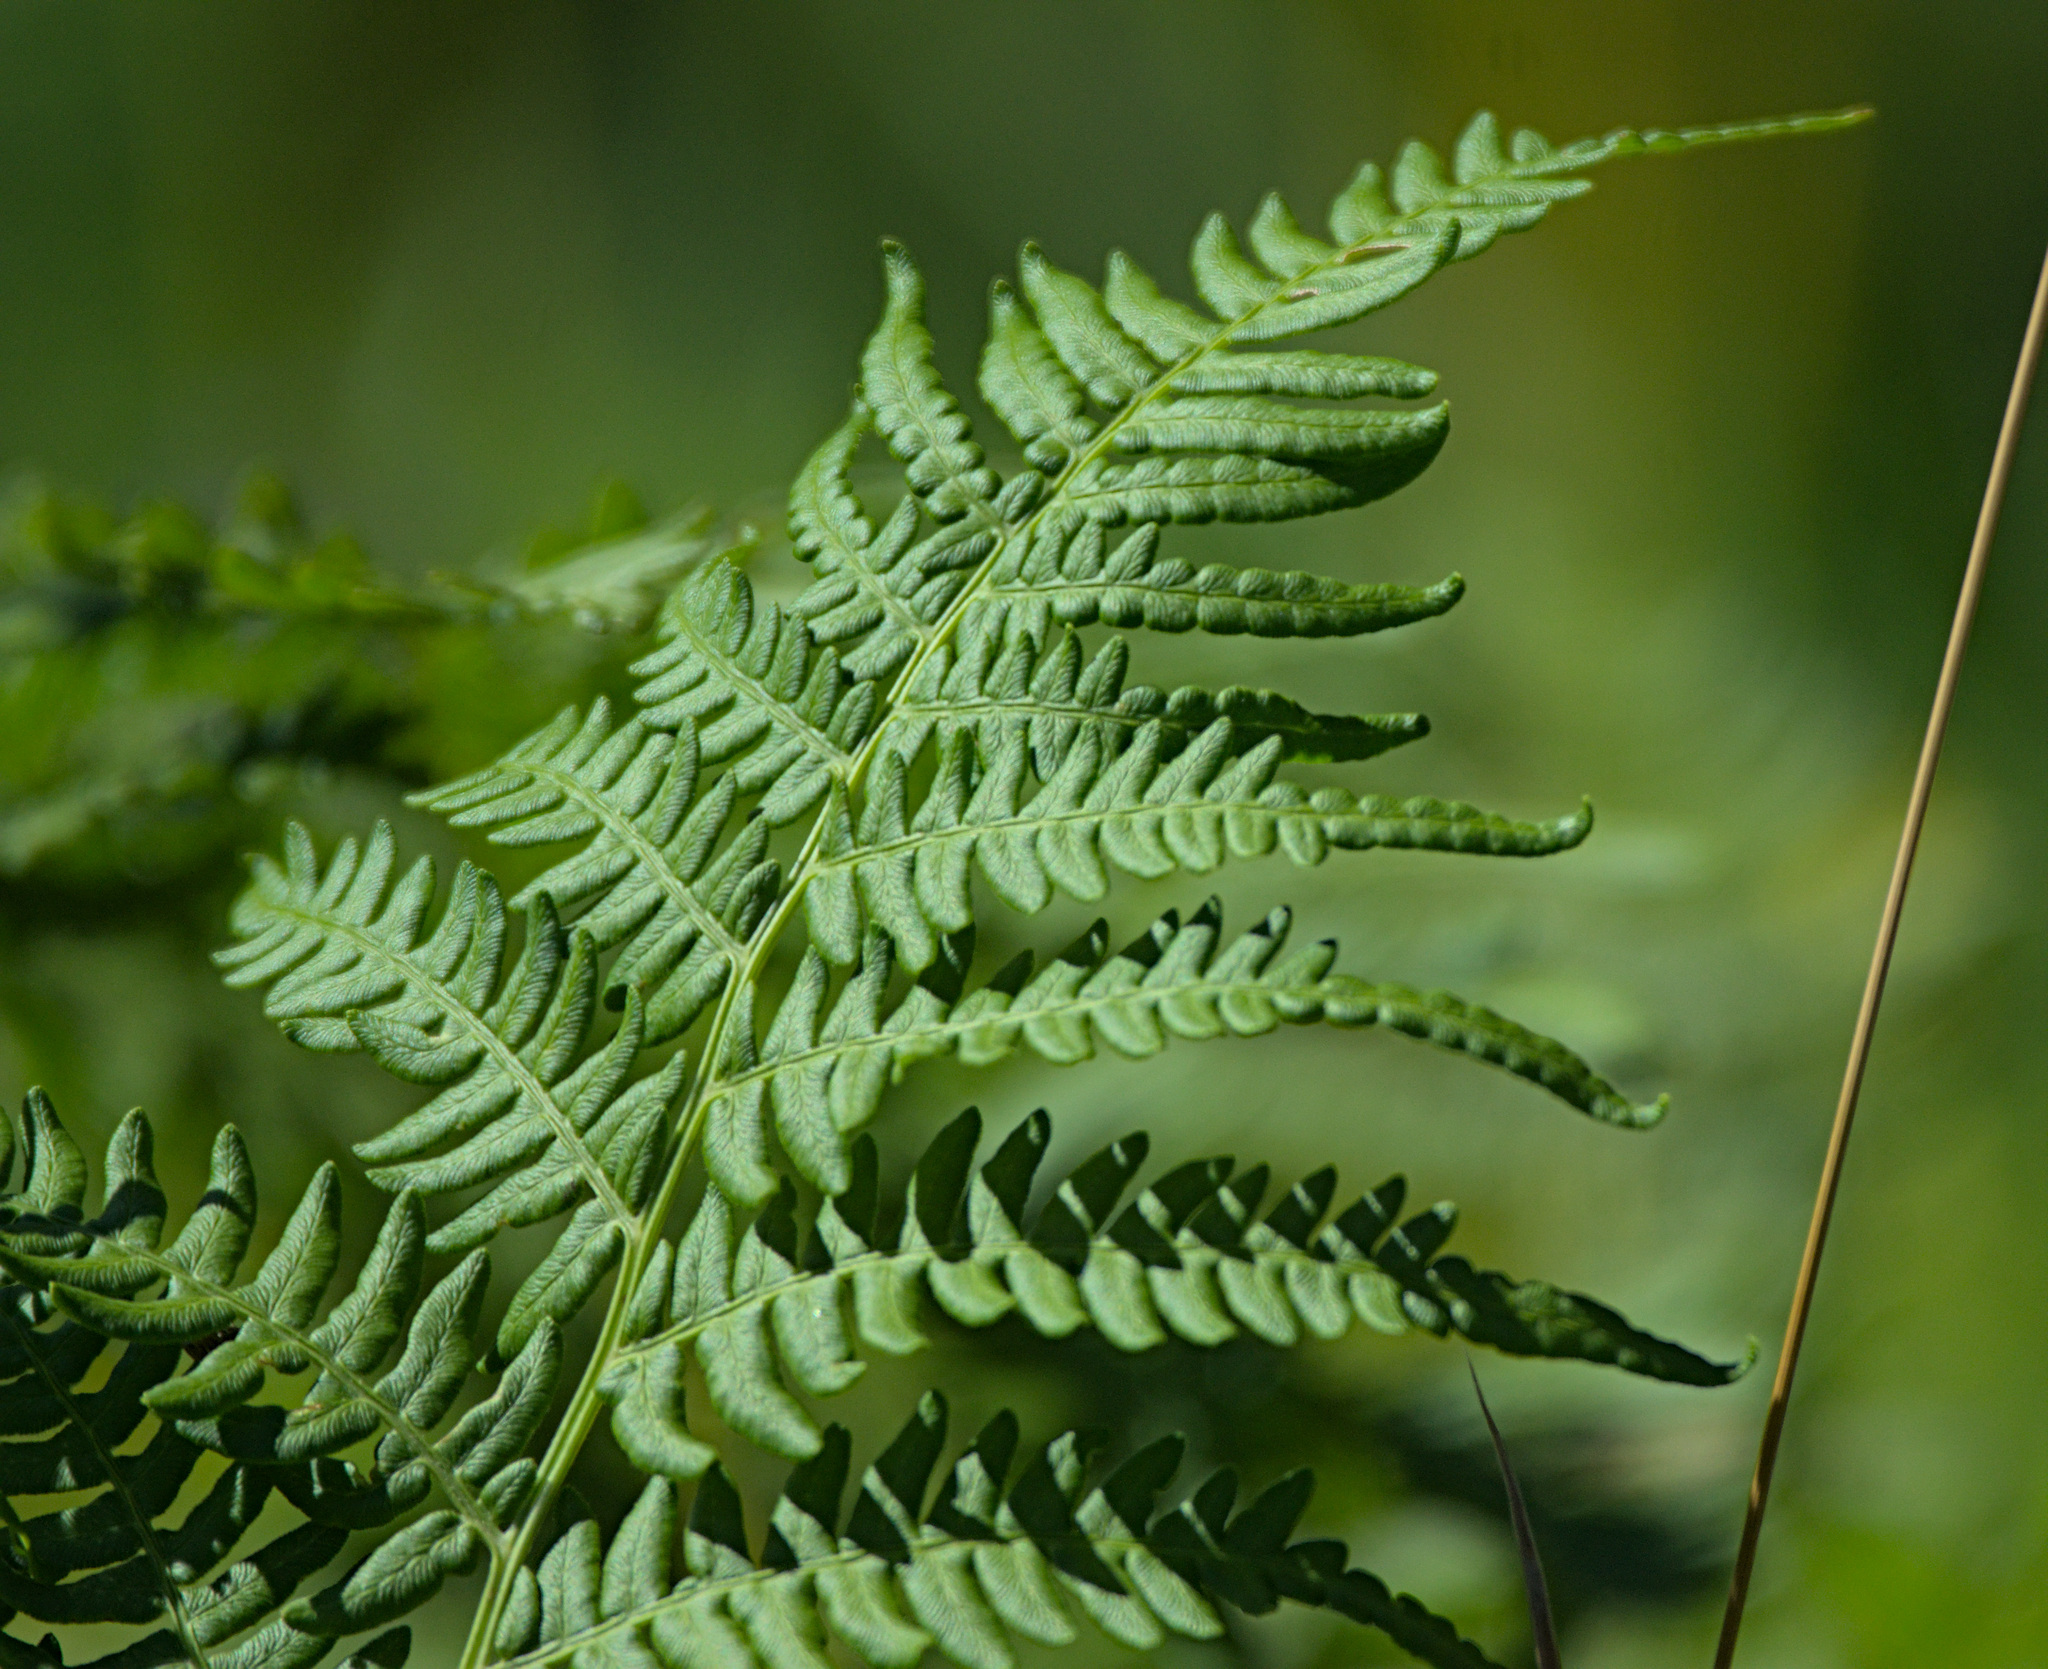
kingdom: Plantae
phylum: Tracheophyta
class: Polypodiopsida
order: Polypodiales
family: Dennstaedtiaceae
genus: Pteridium
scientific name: Pteridium aquilinum
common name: Bracken
